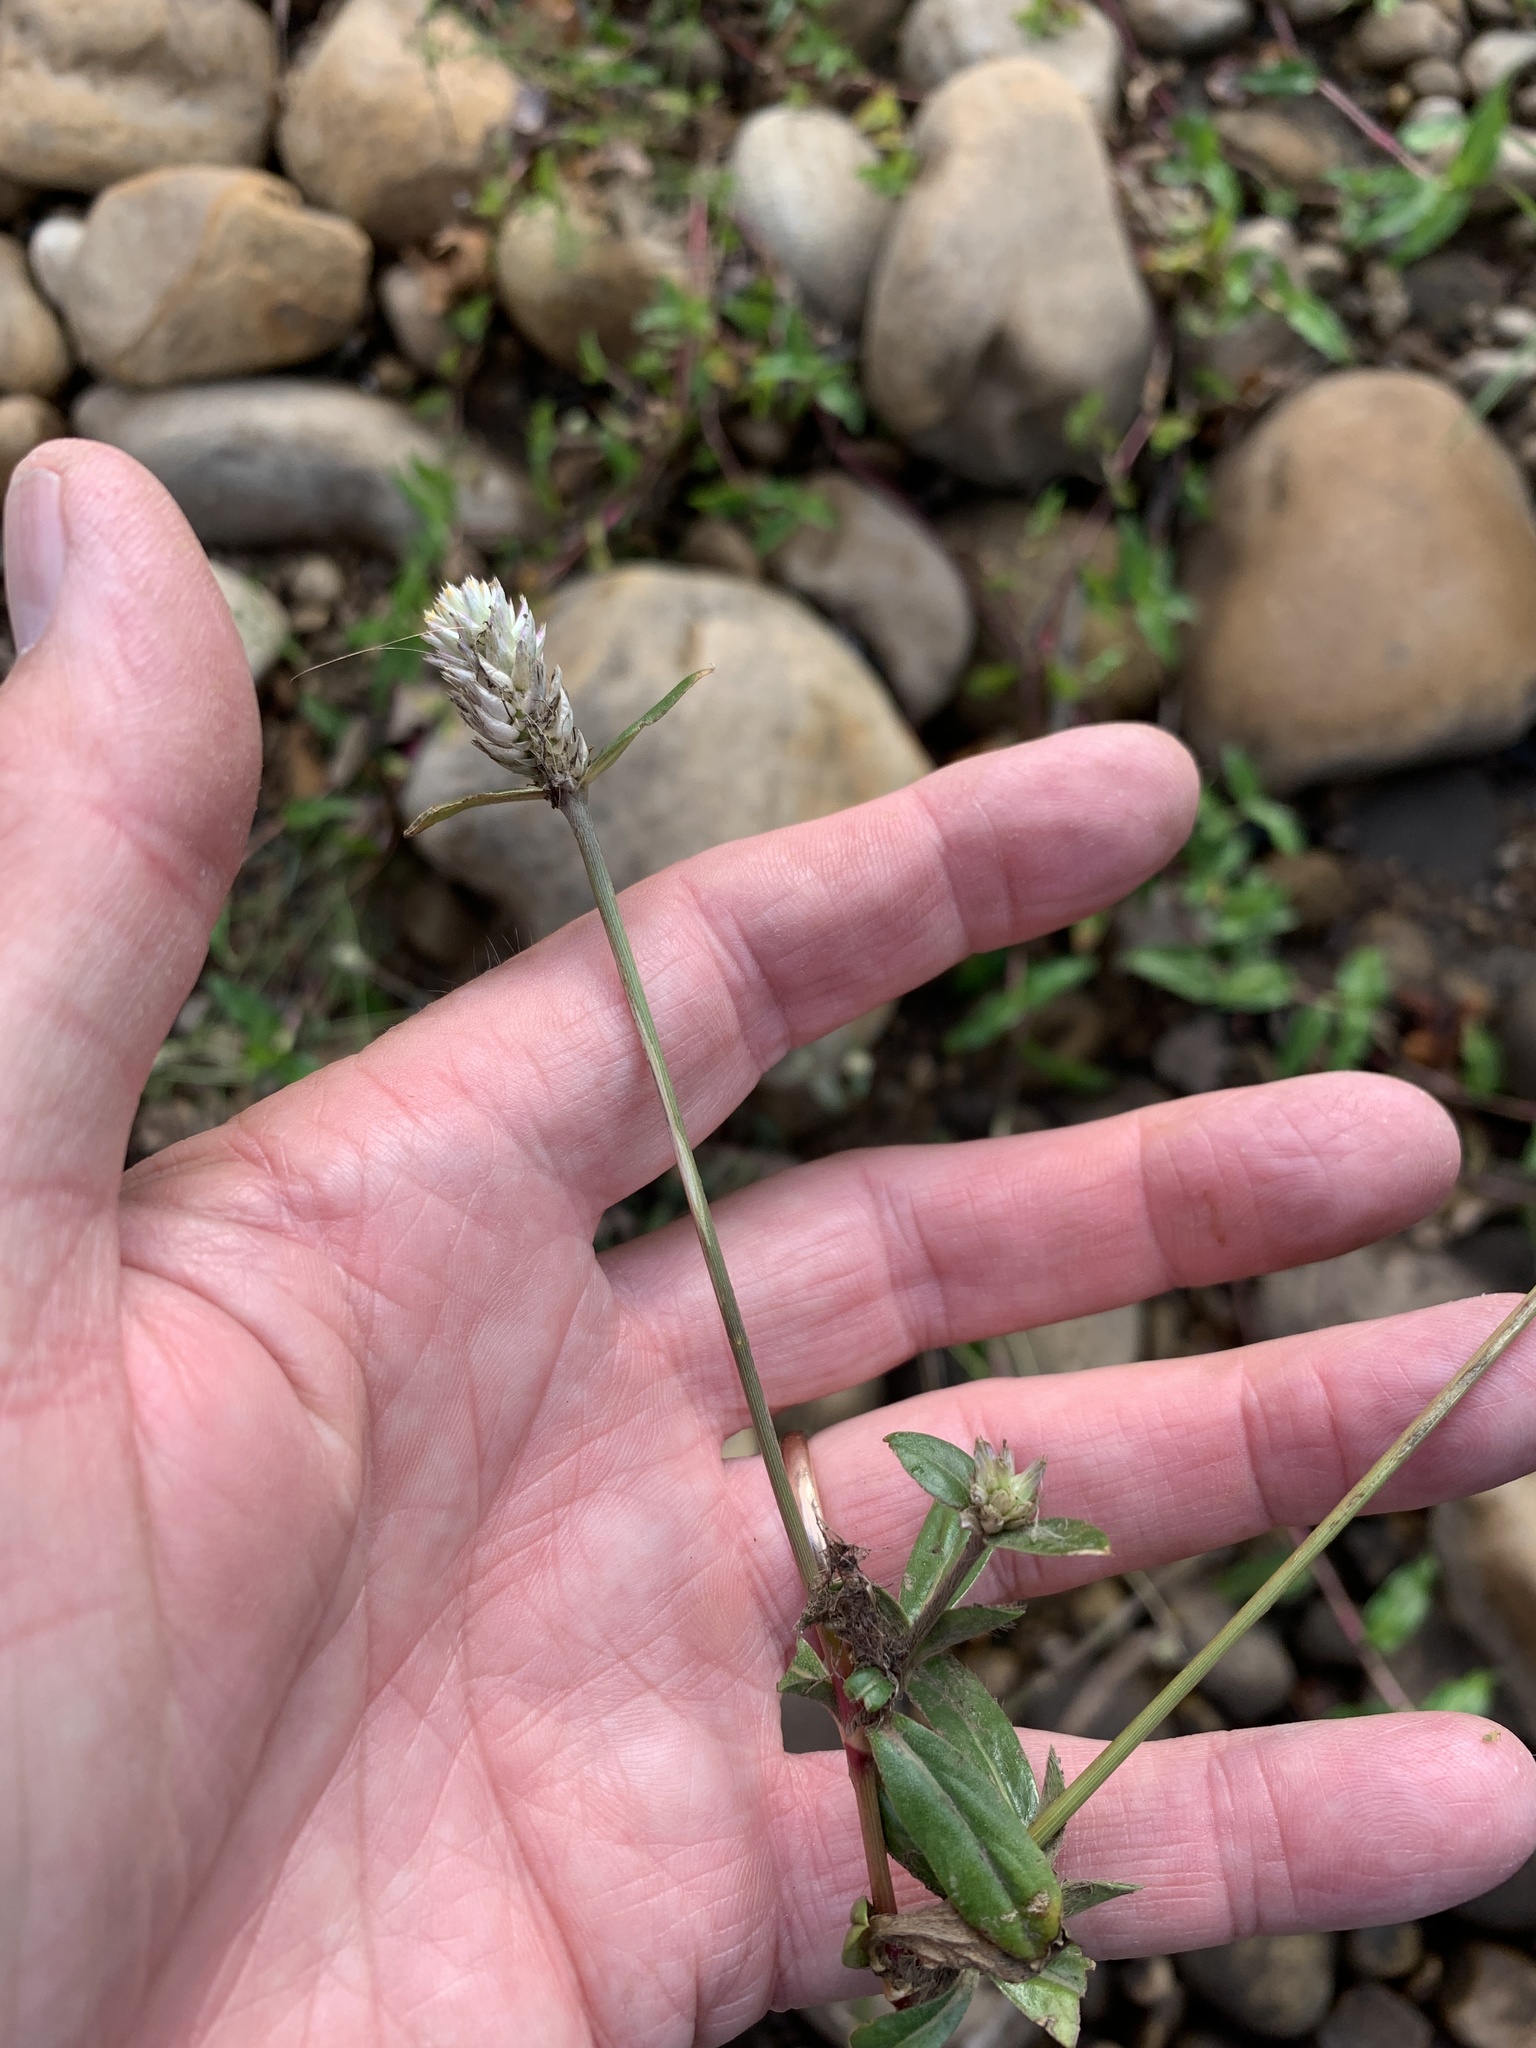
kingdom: Plantae
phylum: Tracheophyta
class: Magnoliopsida
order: Caryophyllales
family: Amaranthaceae
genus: Gomphrena
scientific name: Gomphrena celosioides
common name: Gomphrena-weed
